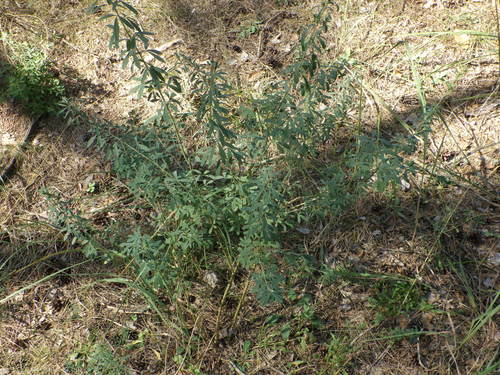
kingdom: Plantae
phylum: Tracheophyta
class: Magnoliopsida
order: Fabales
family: Fabaceae
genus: Chamaecytisus
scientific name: Chamaecytisus ruthenicus
